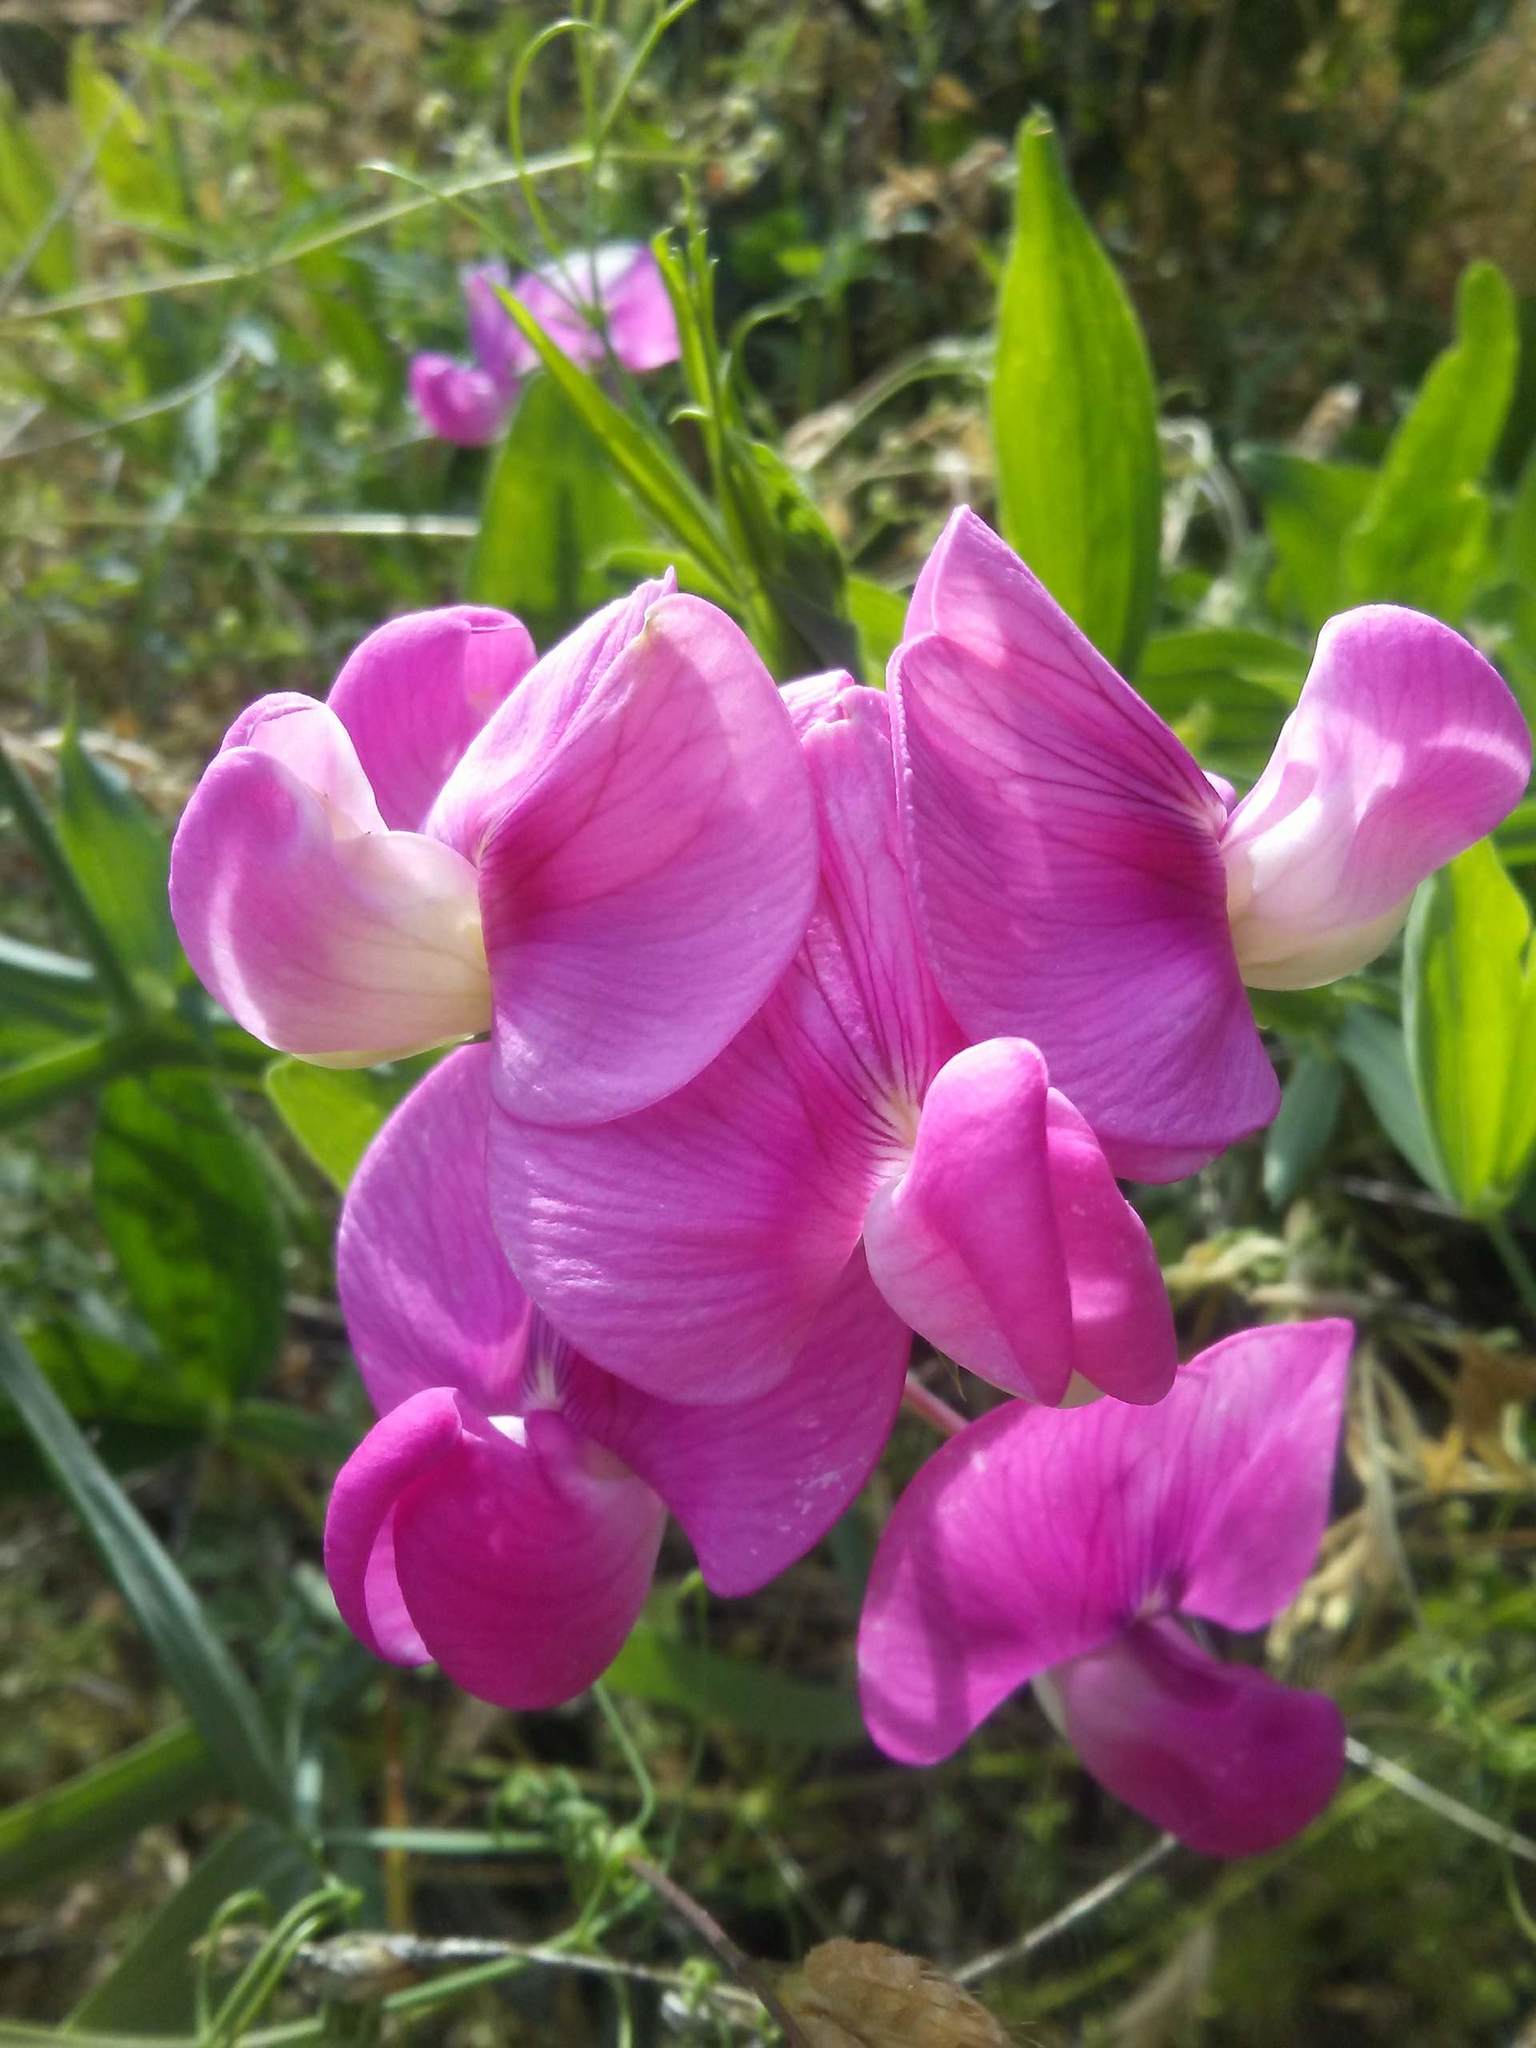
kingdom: Plantae
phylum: Tracheophyta
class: Magnoliopsida
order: Fabales
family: Fabaceae
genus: Lathyrus
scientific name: Lathyrus latifolius
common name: Perennial pea
